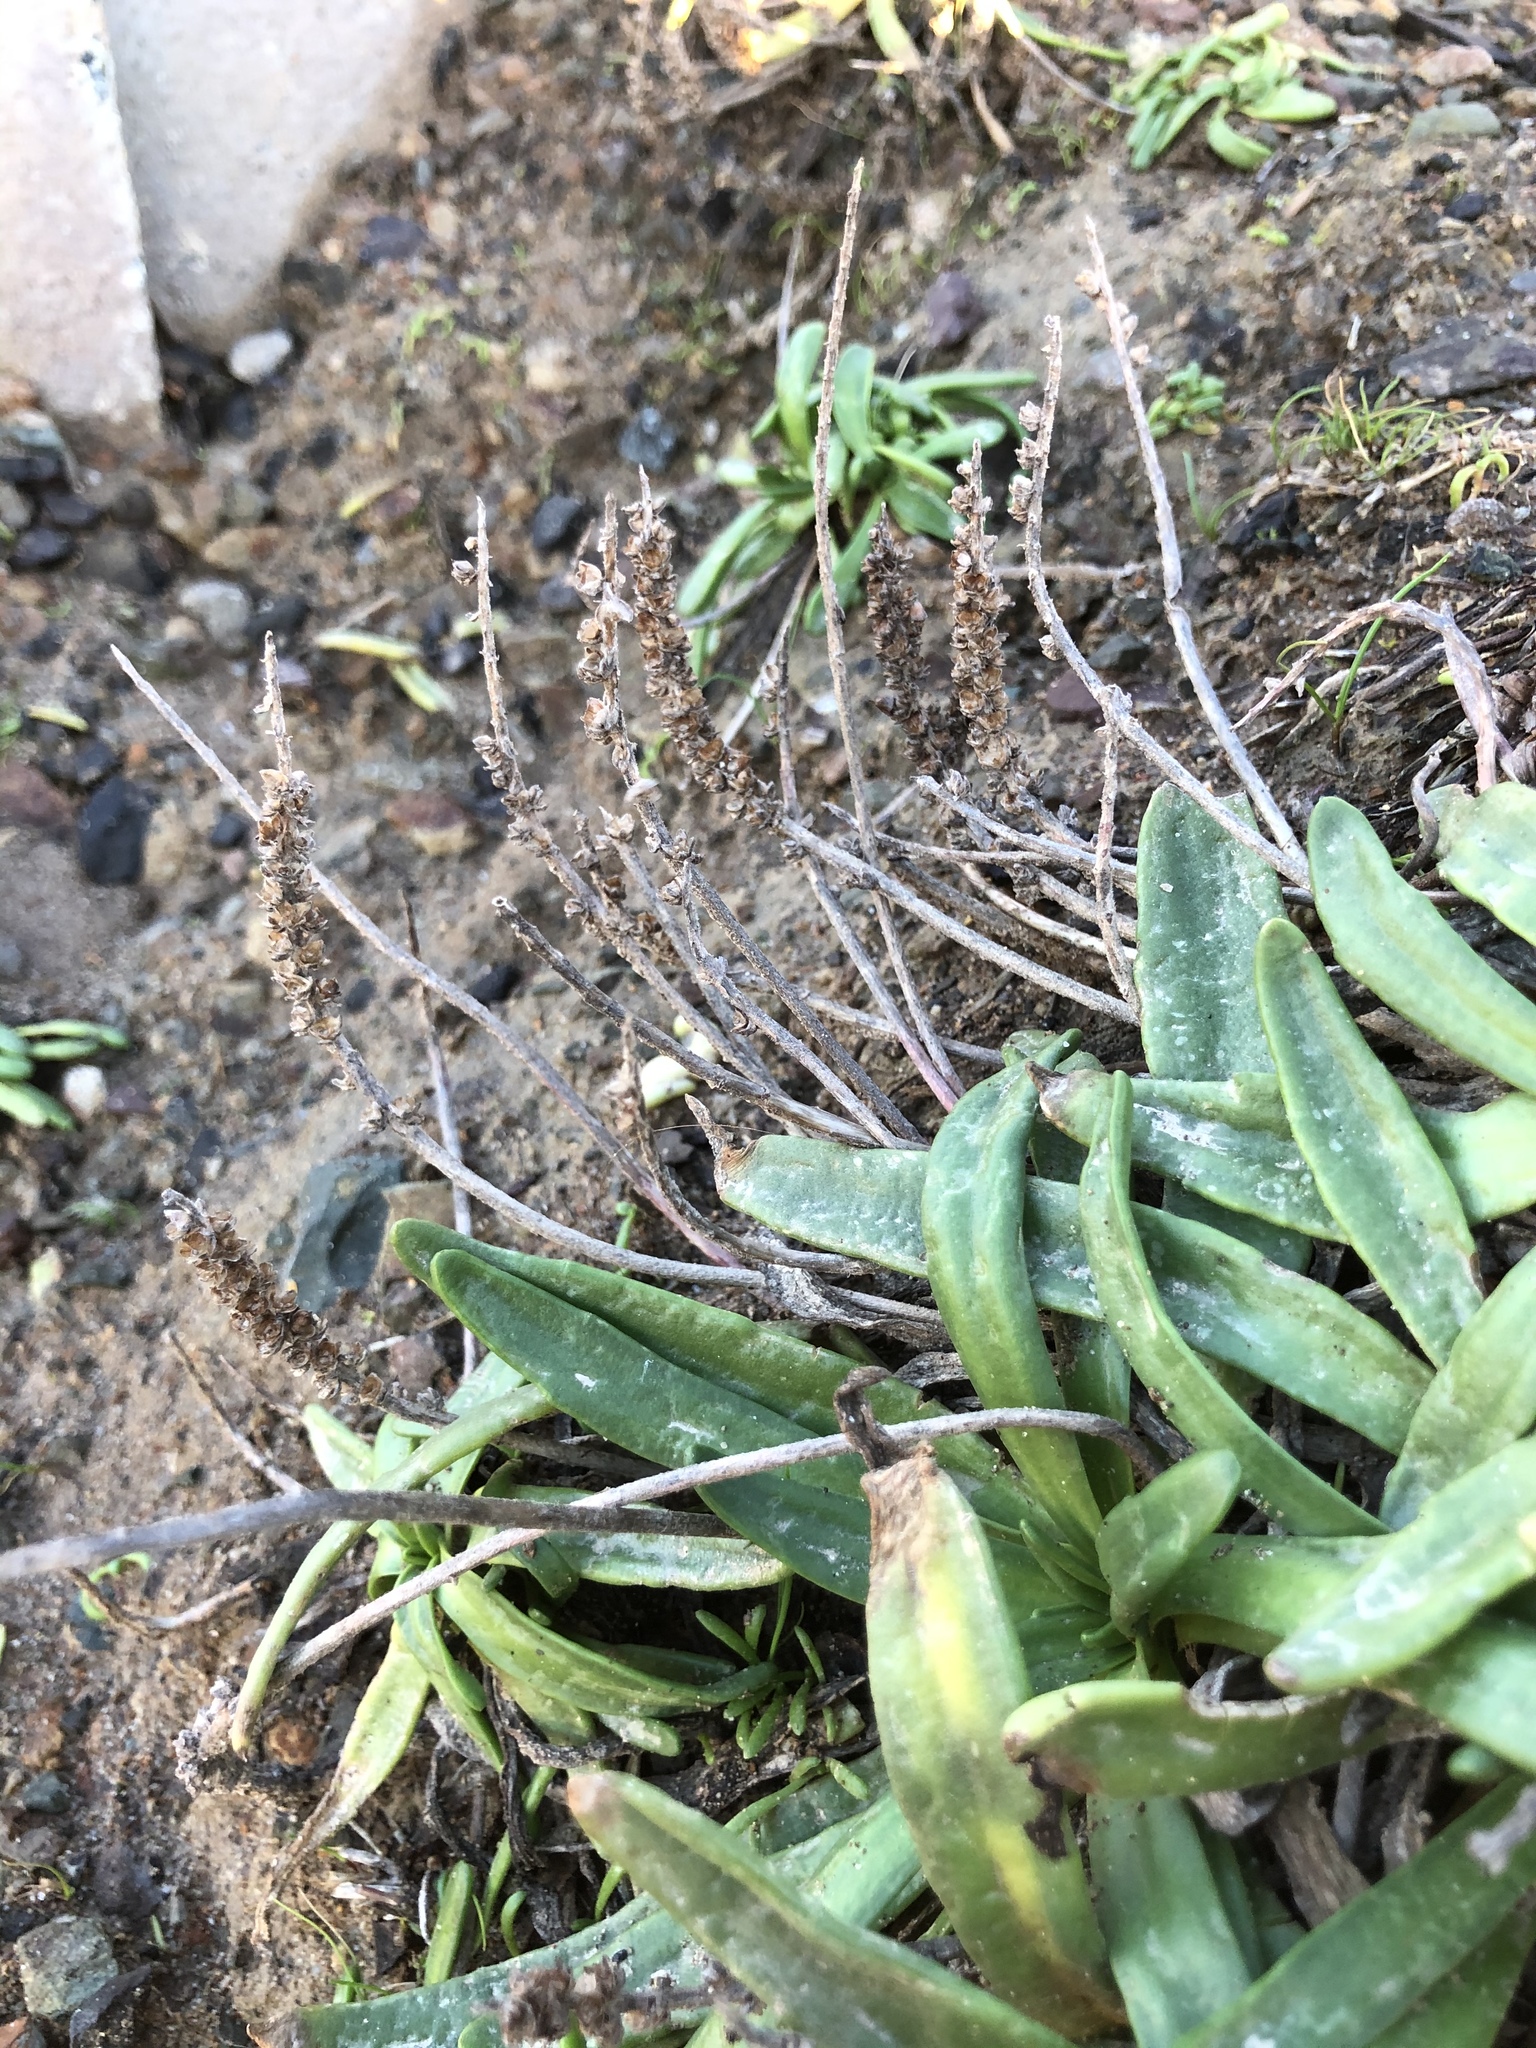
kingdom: Plantae
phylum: Tracheophyta
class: Magnoliopsida
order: Lamiales
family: Plantaginaceae
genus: Plantago
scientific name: Plantago maritima
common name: Sea plantain
